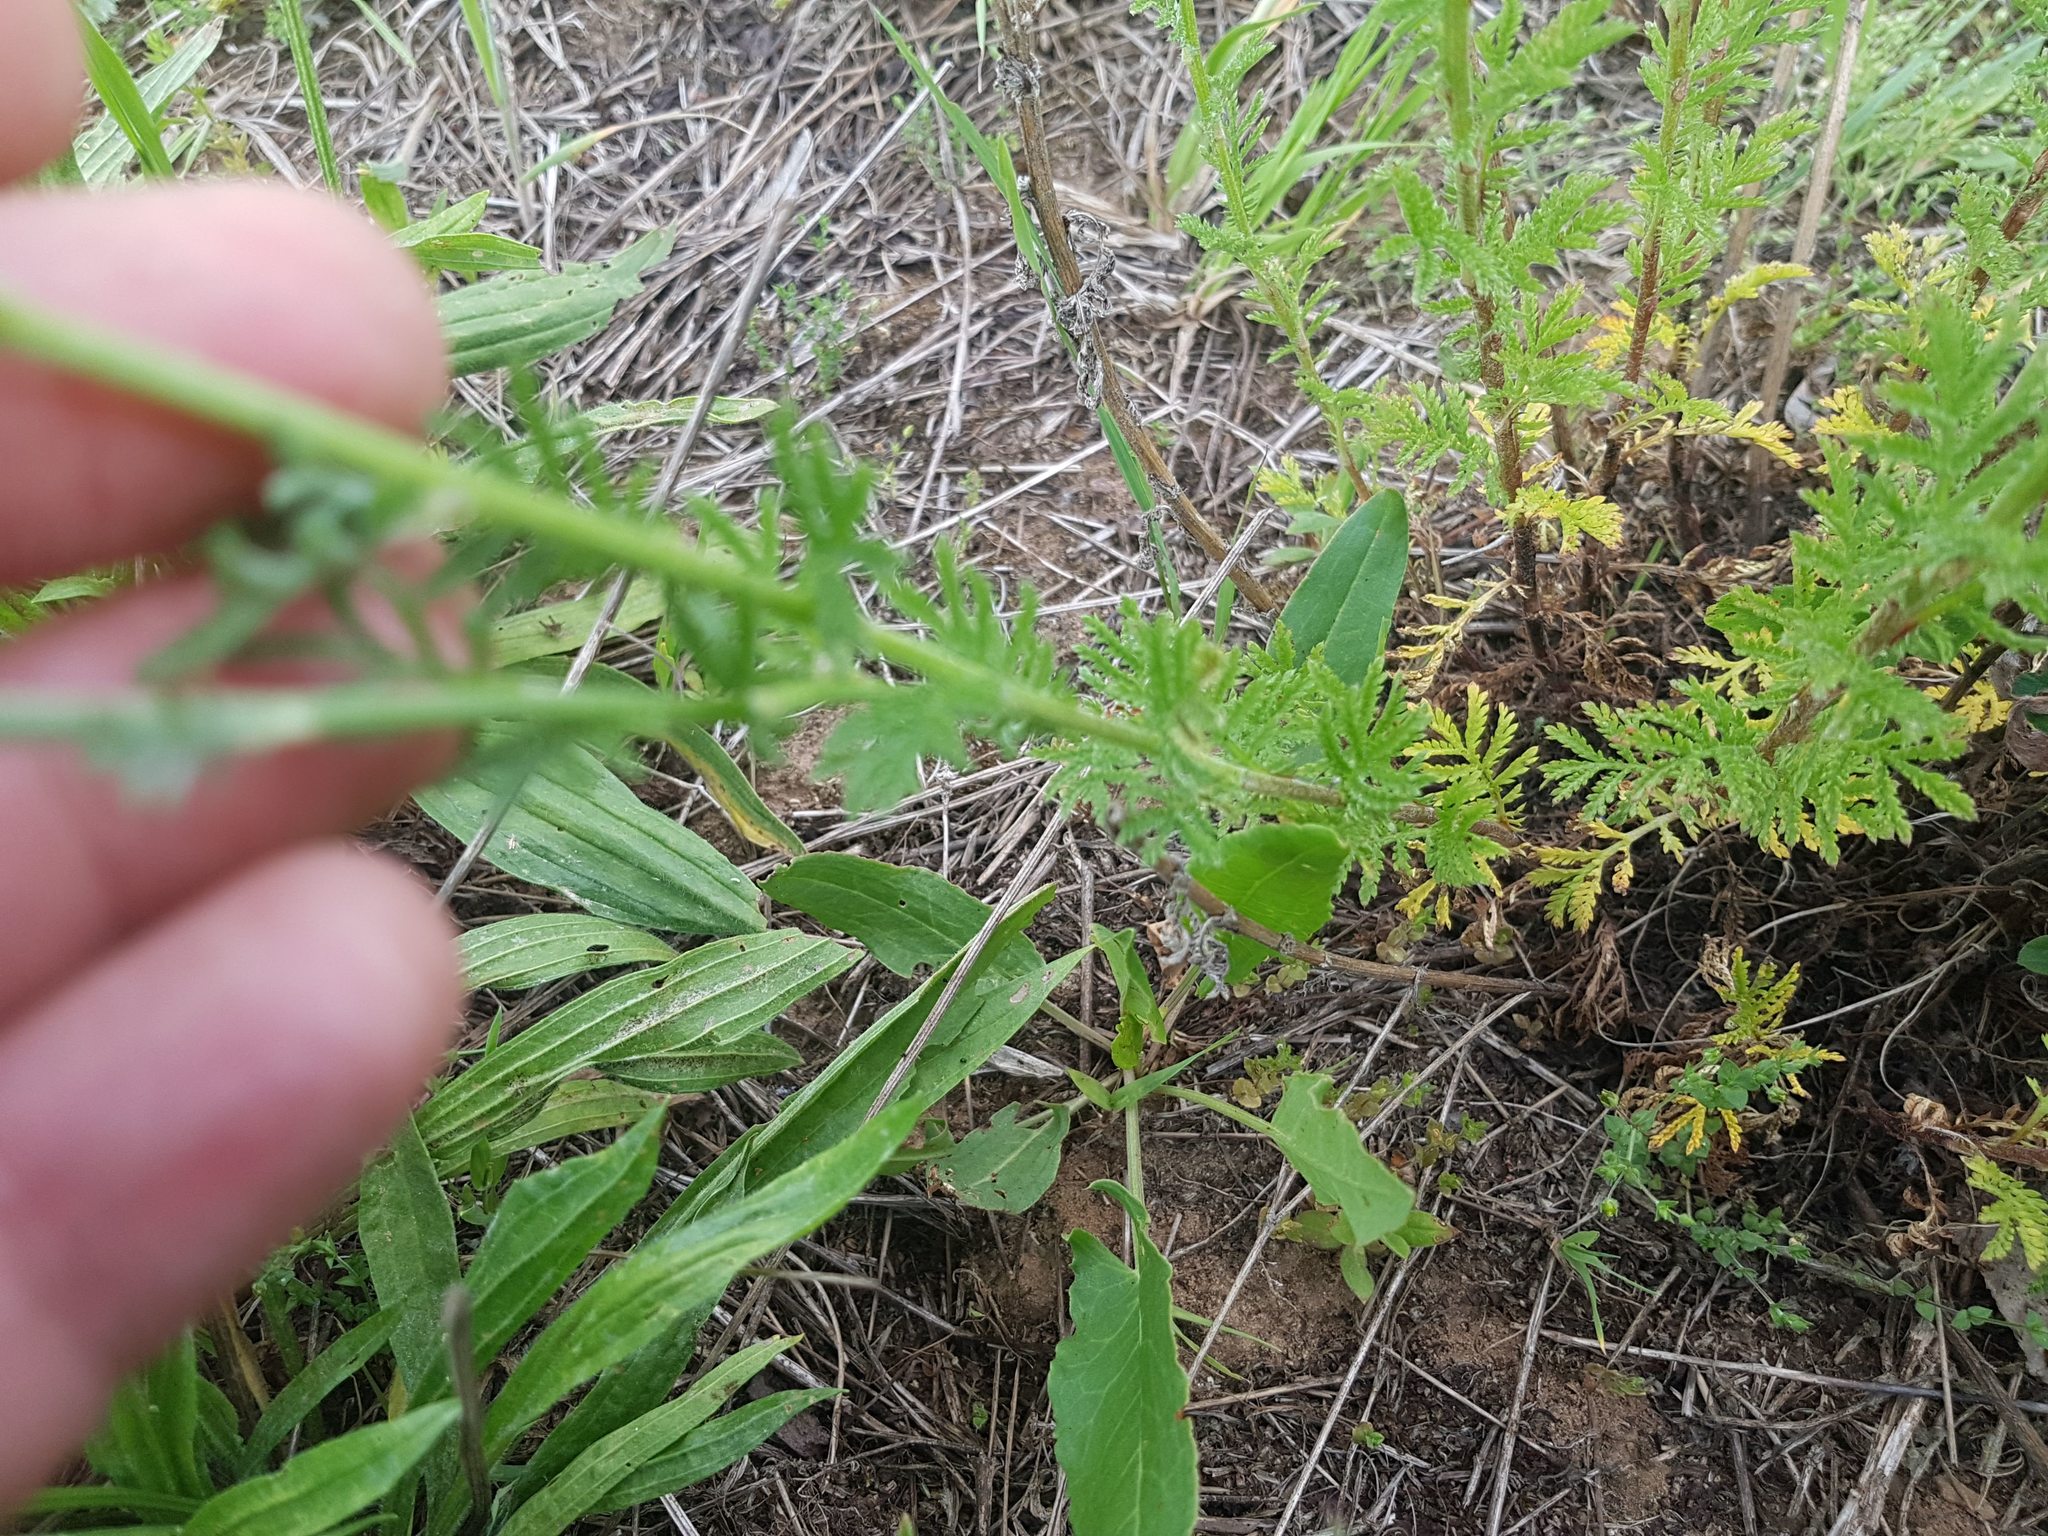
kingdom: Plantae
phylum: Tracheophyta
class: Magnoliopsida
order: Asterales
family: Asteraceae
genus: Cota
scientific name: Cota tinctoria
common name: Golden chamomile
